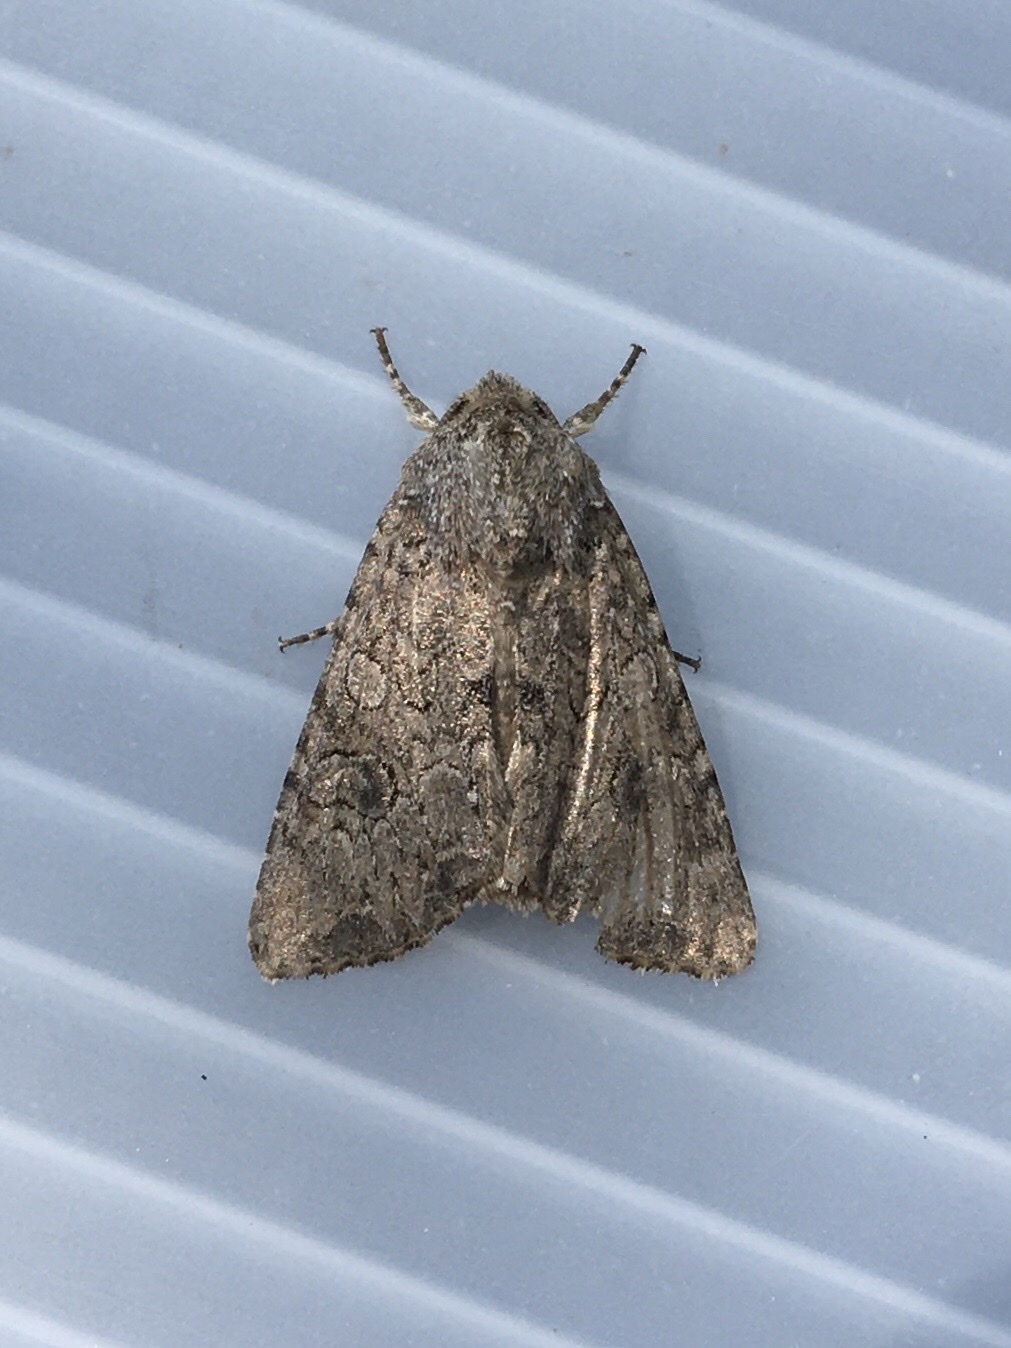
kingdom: Animalia
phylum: Arthropoda
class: Insecta
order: Lepidoptera
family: Noctuidae
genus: Anarta
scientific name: Anarta trifolii
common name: Clover cutworm moth
